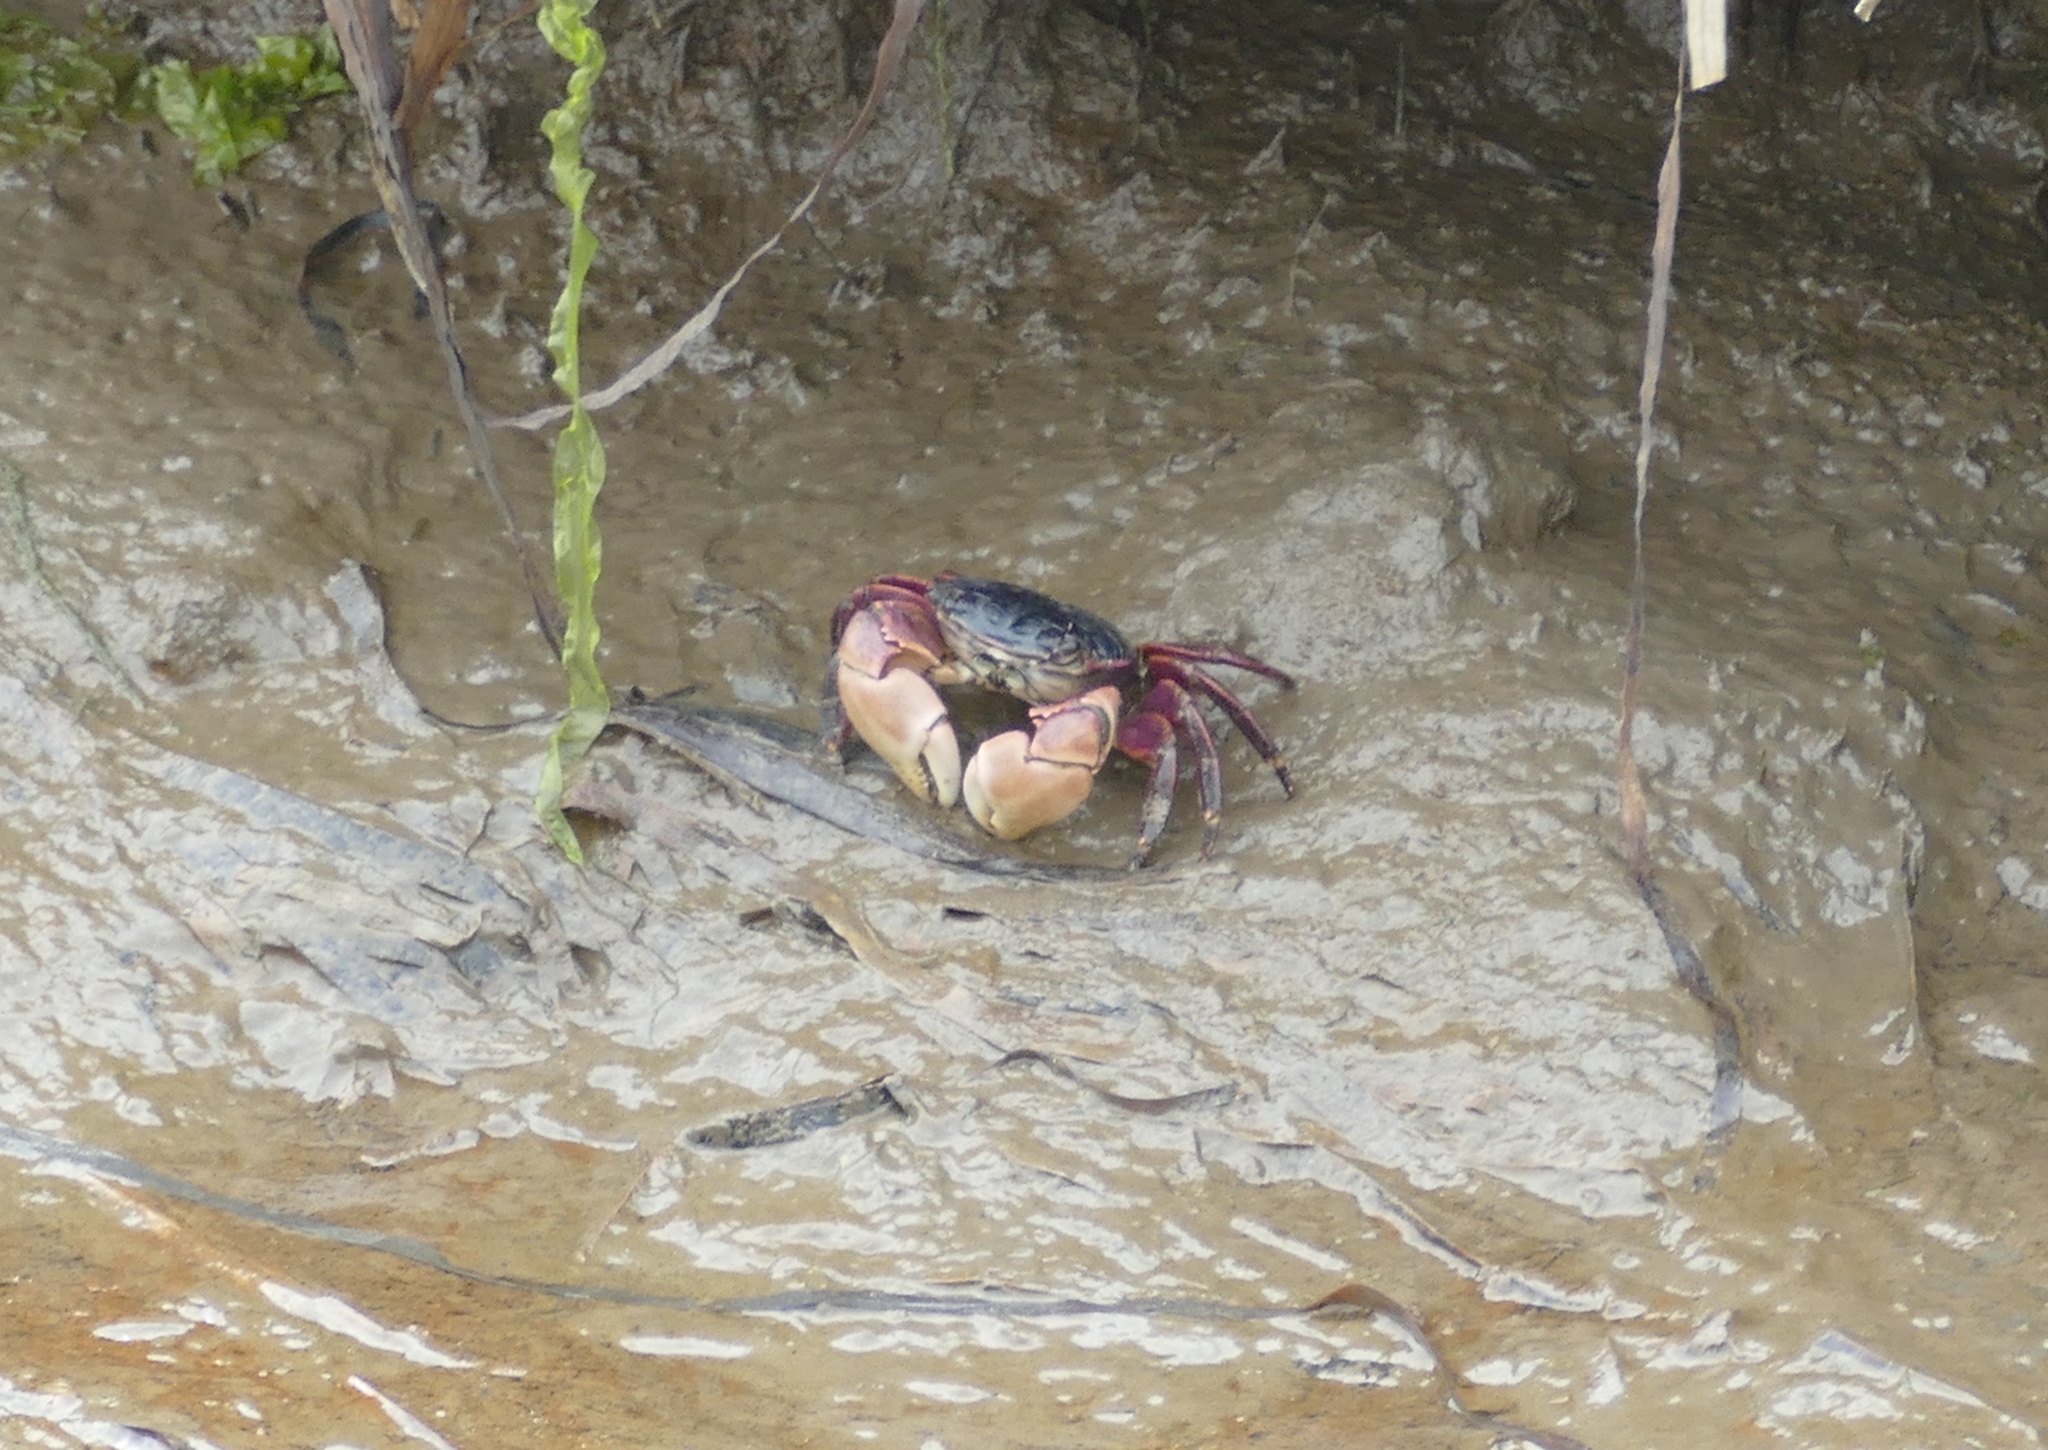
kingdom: Animalia
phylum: Arthropoda
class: Malacostraca
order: Decapoda
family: Grapsidae
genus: Pachygrapsus
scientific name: Pachygrapsus crassipes
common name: Striped shore crab
